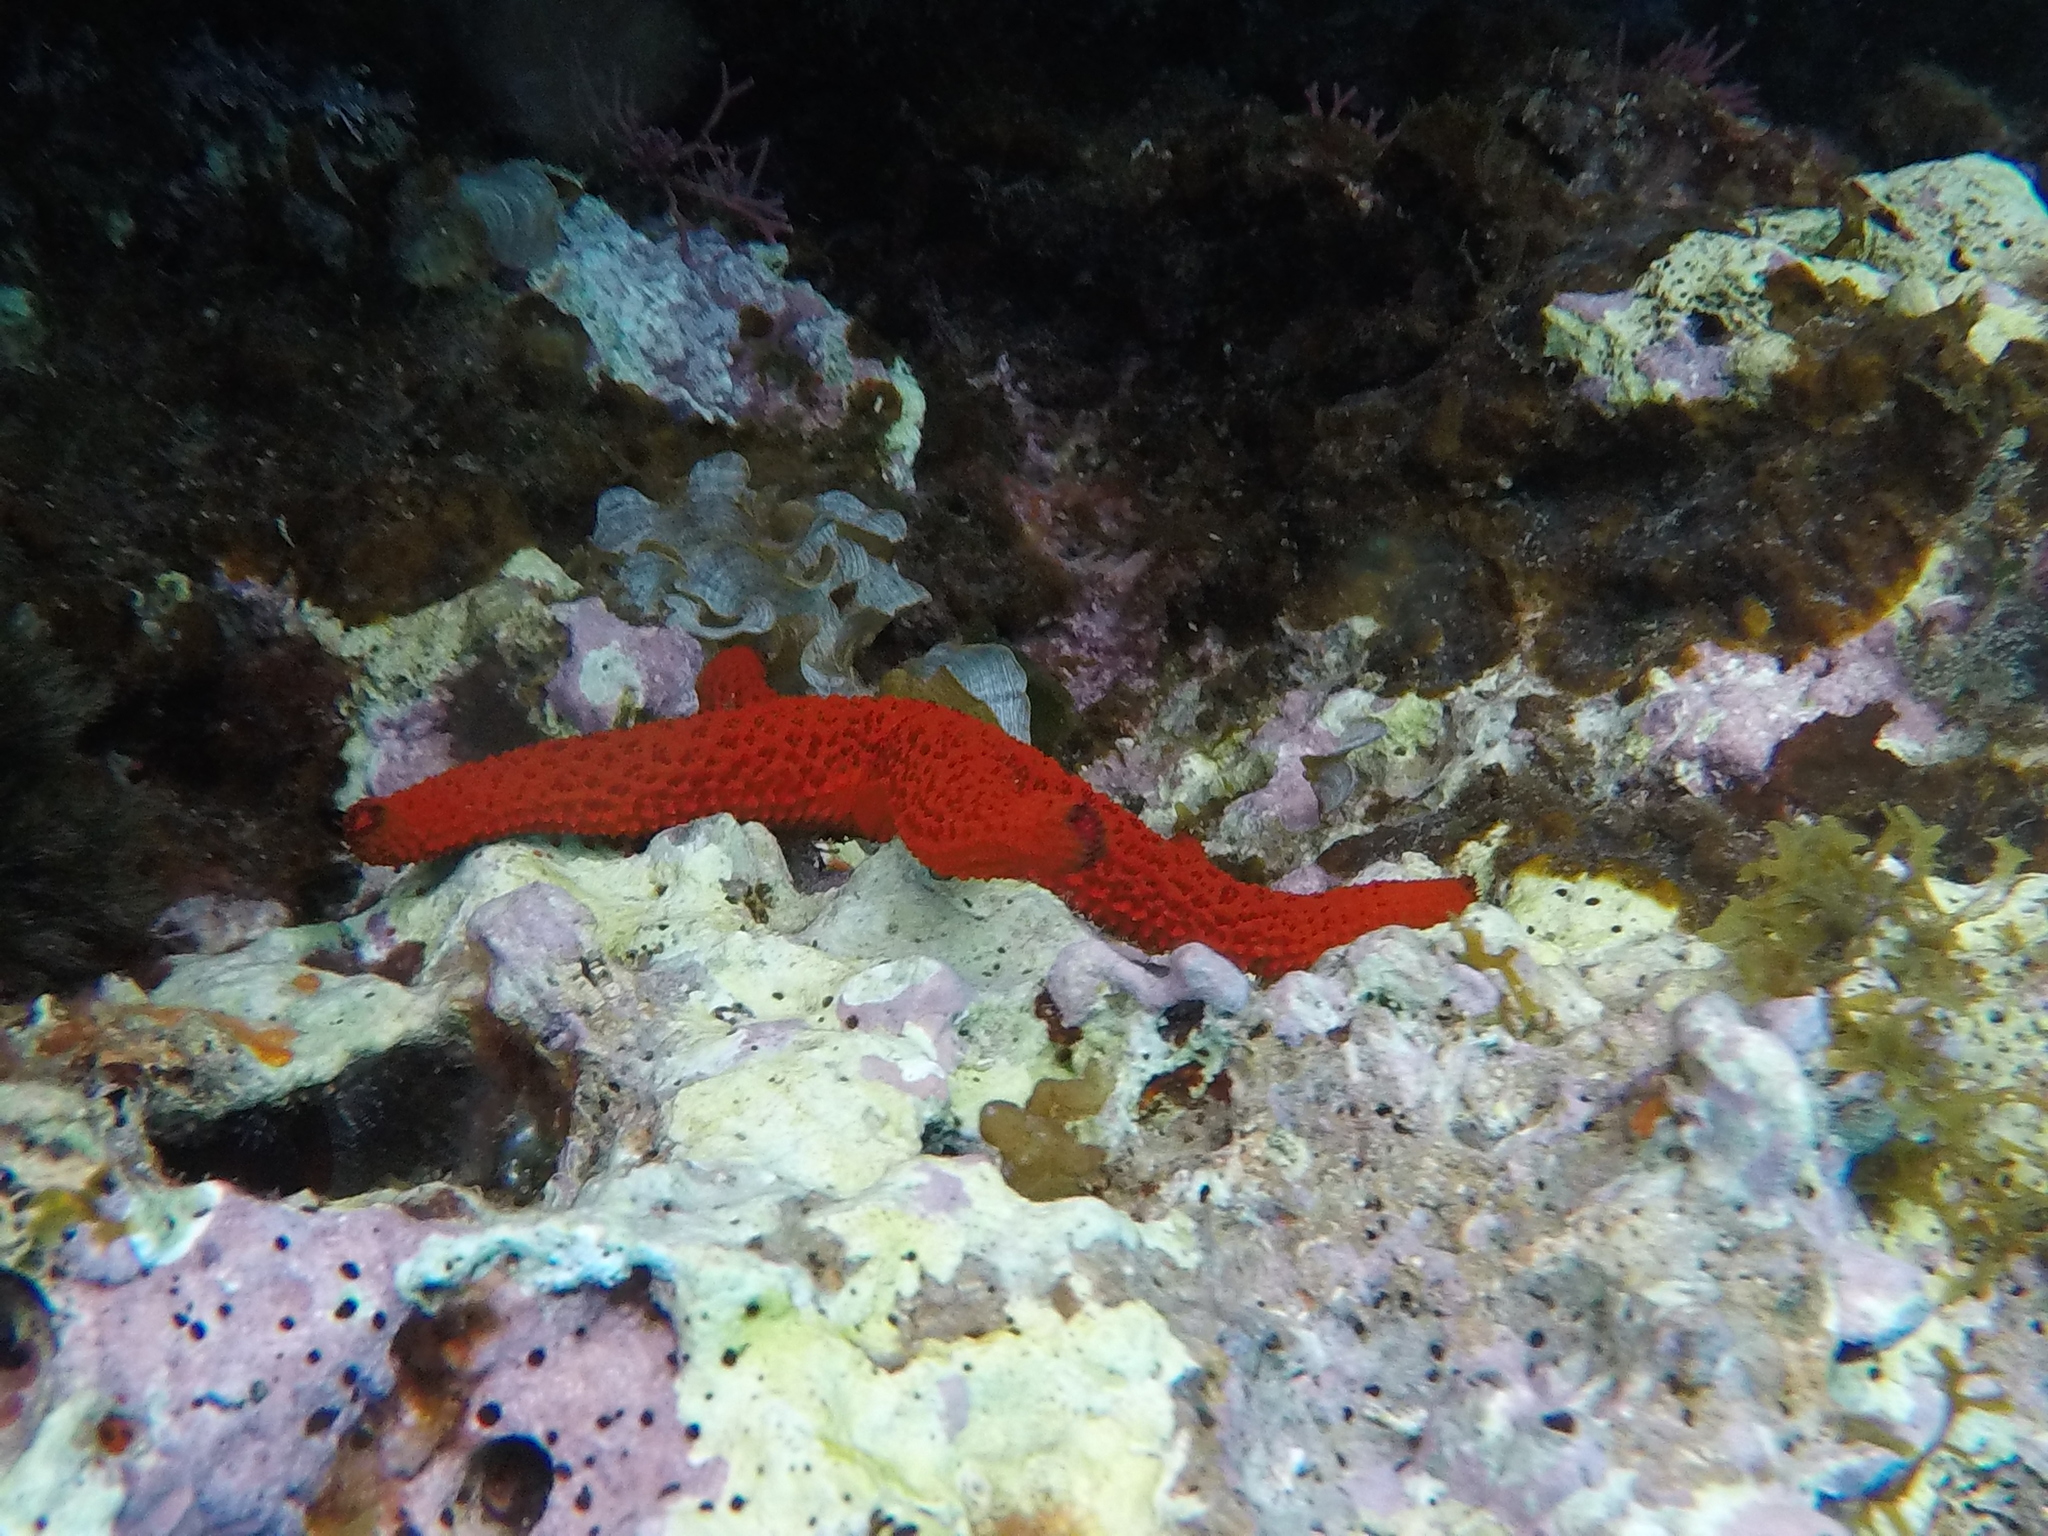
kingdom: Animalia
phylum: Echinodermata
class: Asteroidea
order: Spinulosida
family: Echinasteridae
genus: Echinaster
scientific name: Echinaster sepositus
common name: Red starfish
